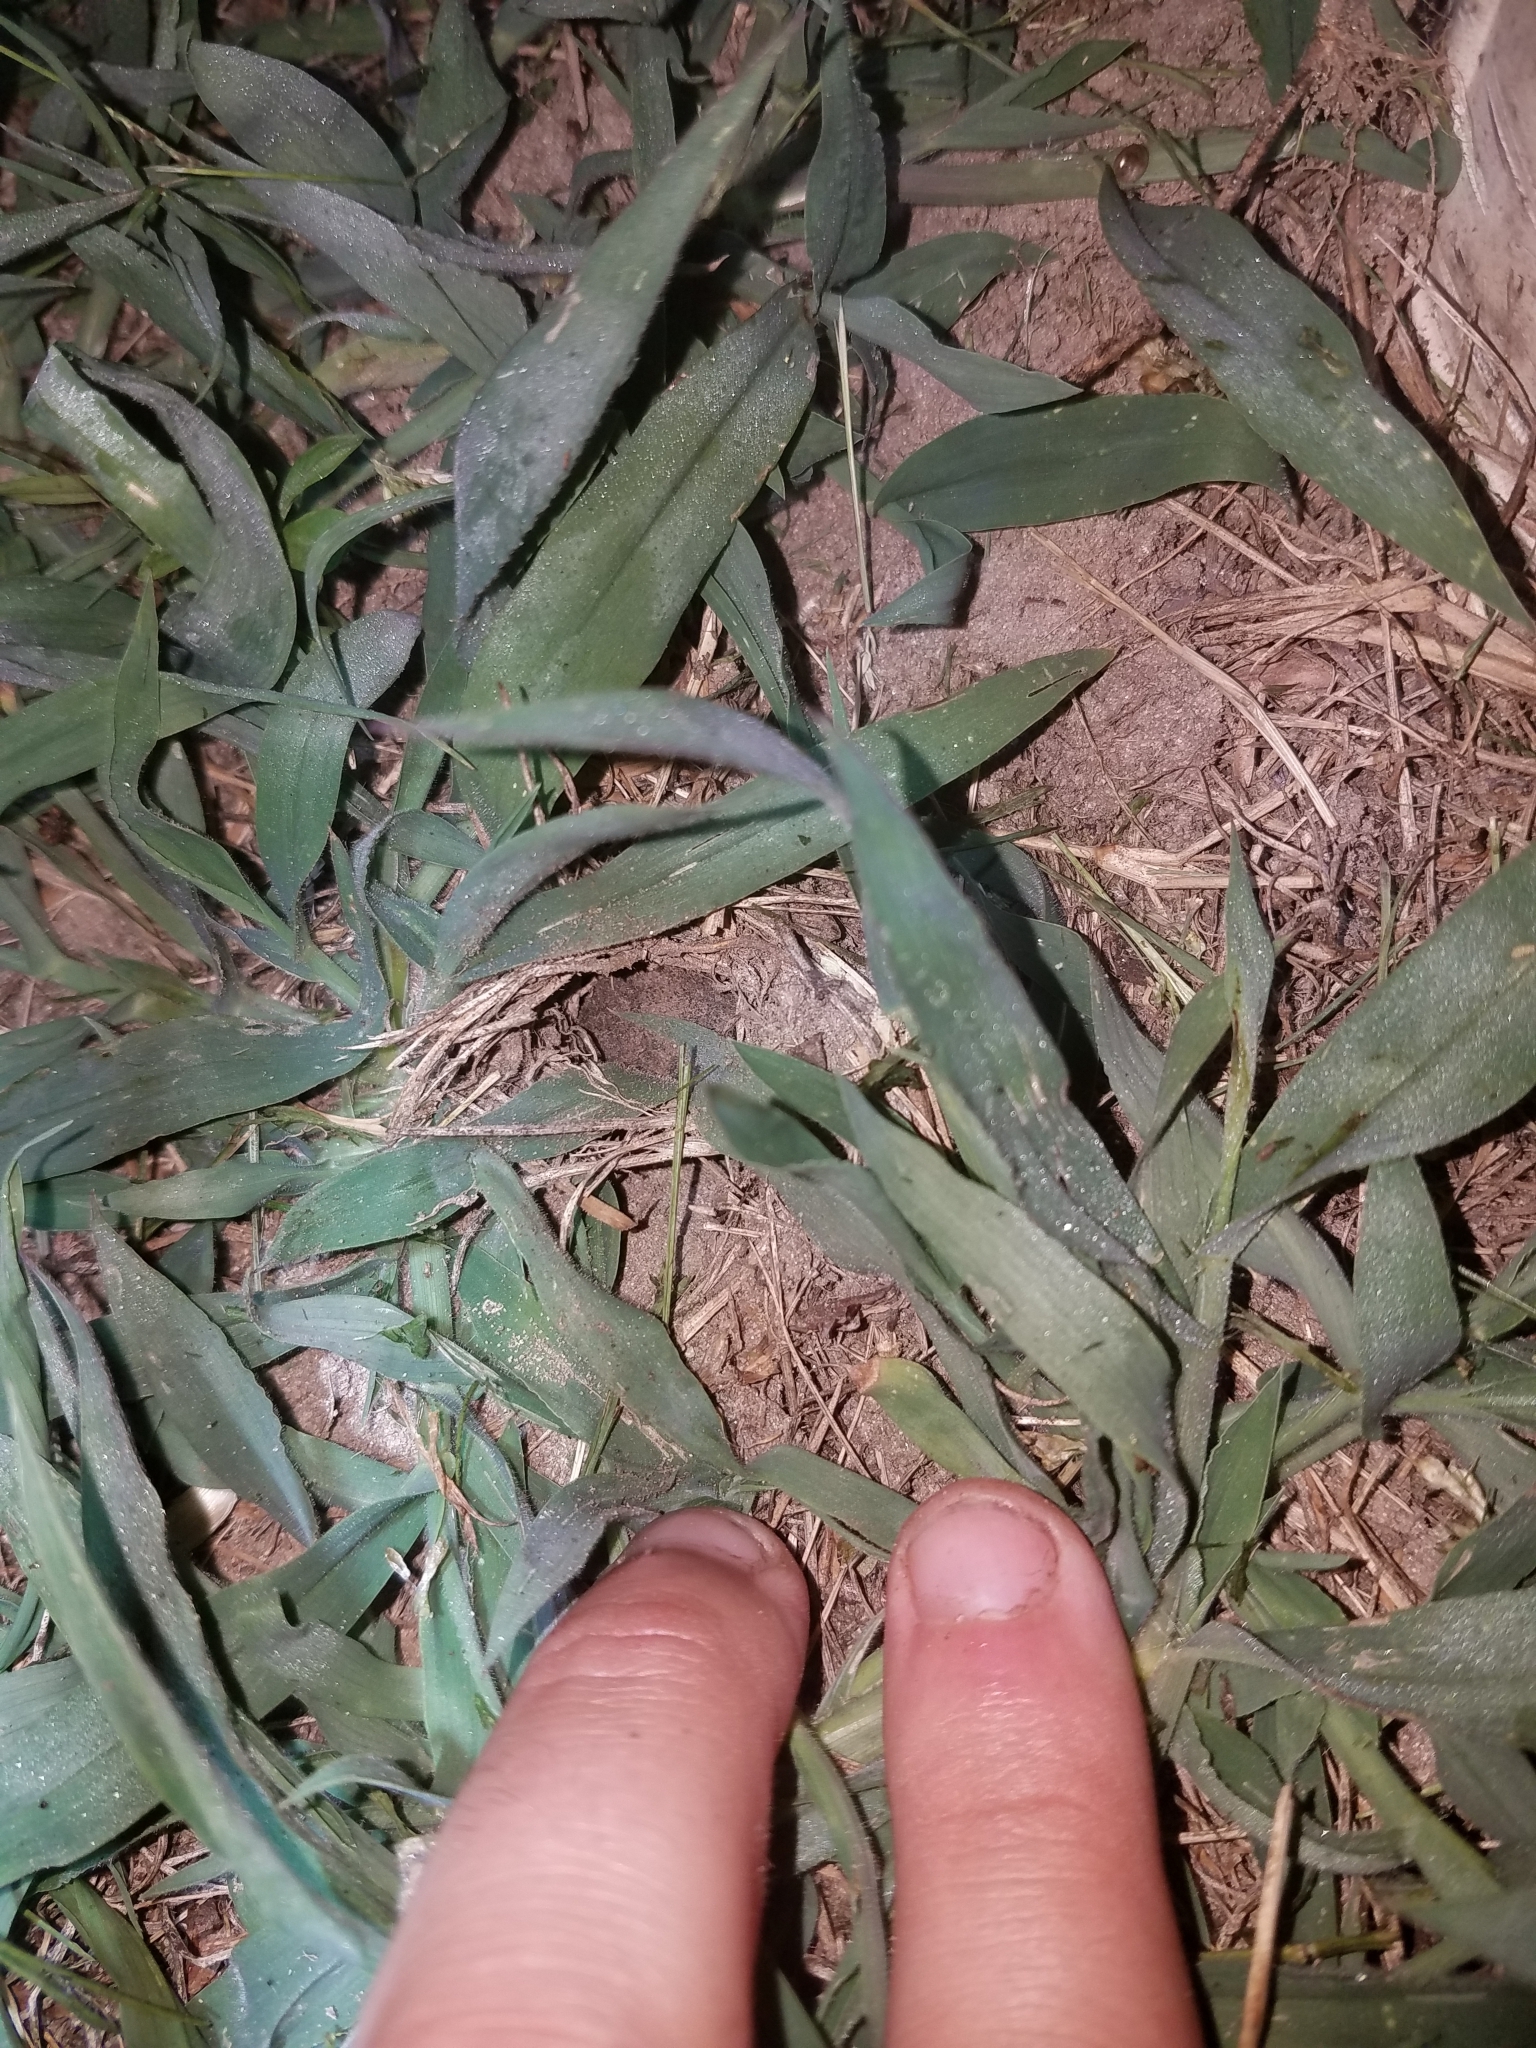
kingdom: Animalia
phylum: Chordata
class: Amphibia
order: Anura
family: Scaphiopodidae
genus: Scaphiopus
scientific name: Scaphiopus holbrookii
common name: Eastern spadefoot toad
